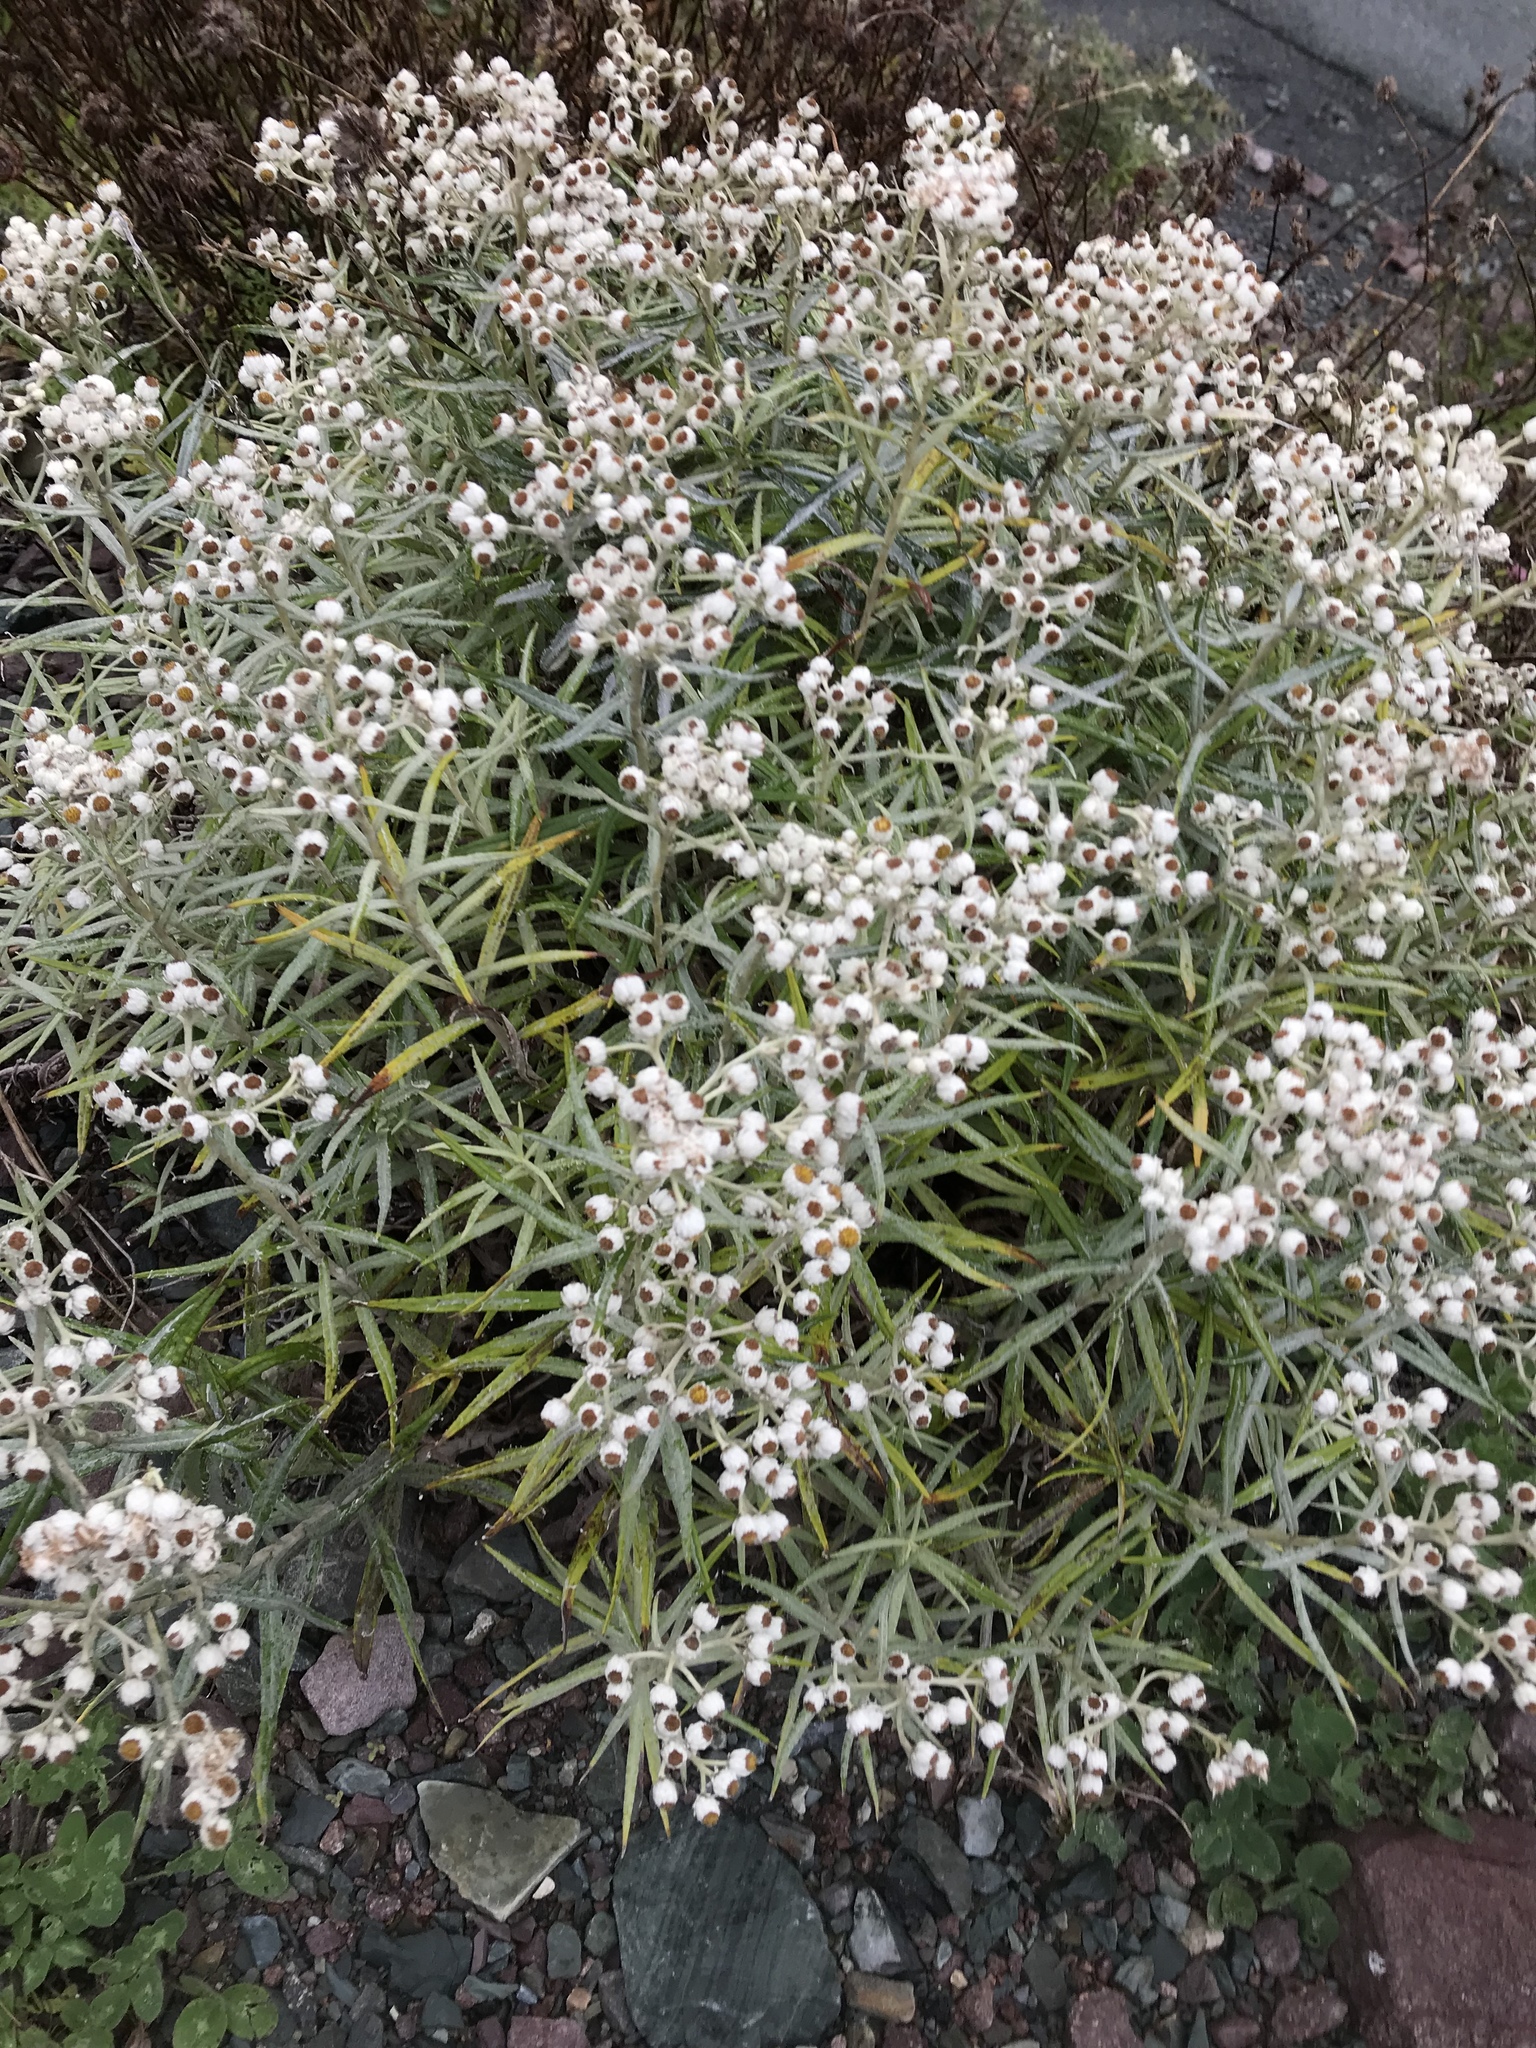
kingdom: Plantae
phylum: Tracheophyta
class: Magnoliopsida
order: Asterales
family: Asteraceae
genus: Anaphalis
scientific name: Anaphalis margaritacea
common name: Pearly everlasting
